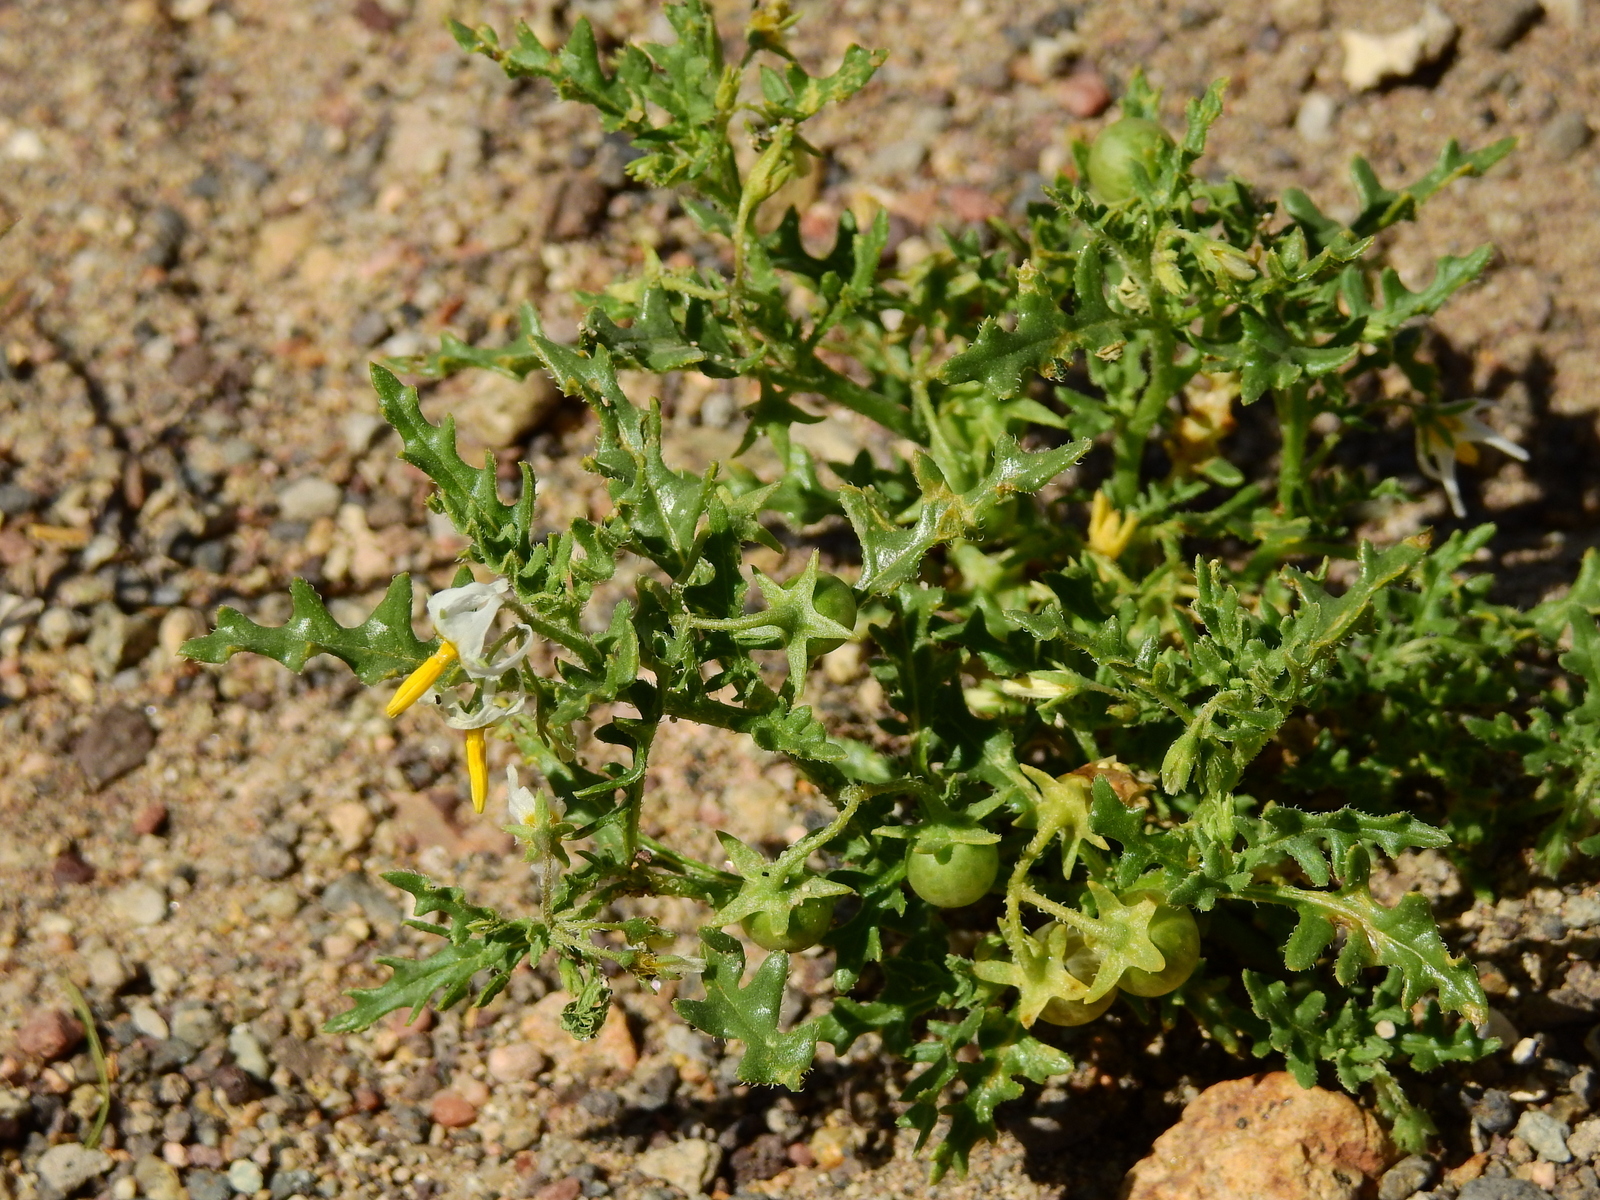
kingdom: Plantae
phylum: Tracheophyta
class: Magnoliopsida
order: Solanales
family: Solanaceae
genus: Solanum
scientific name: Solanum triflorum
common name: Small nightshade
